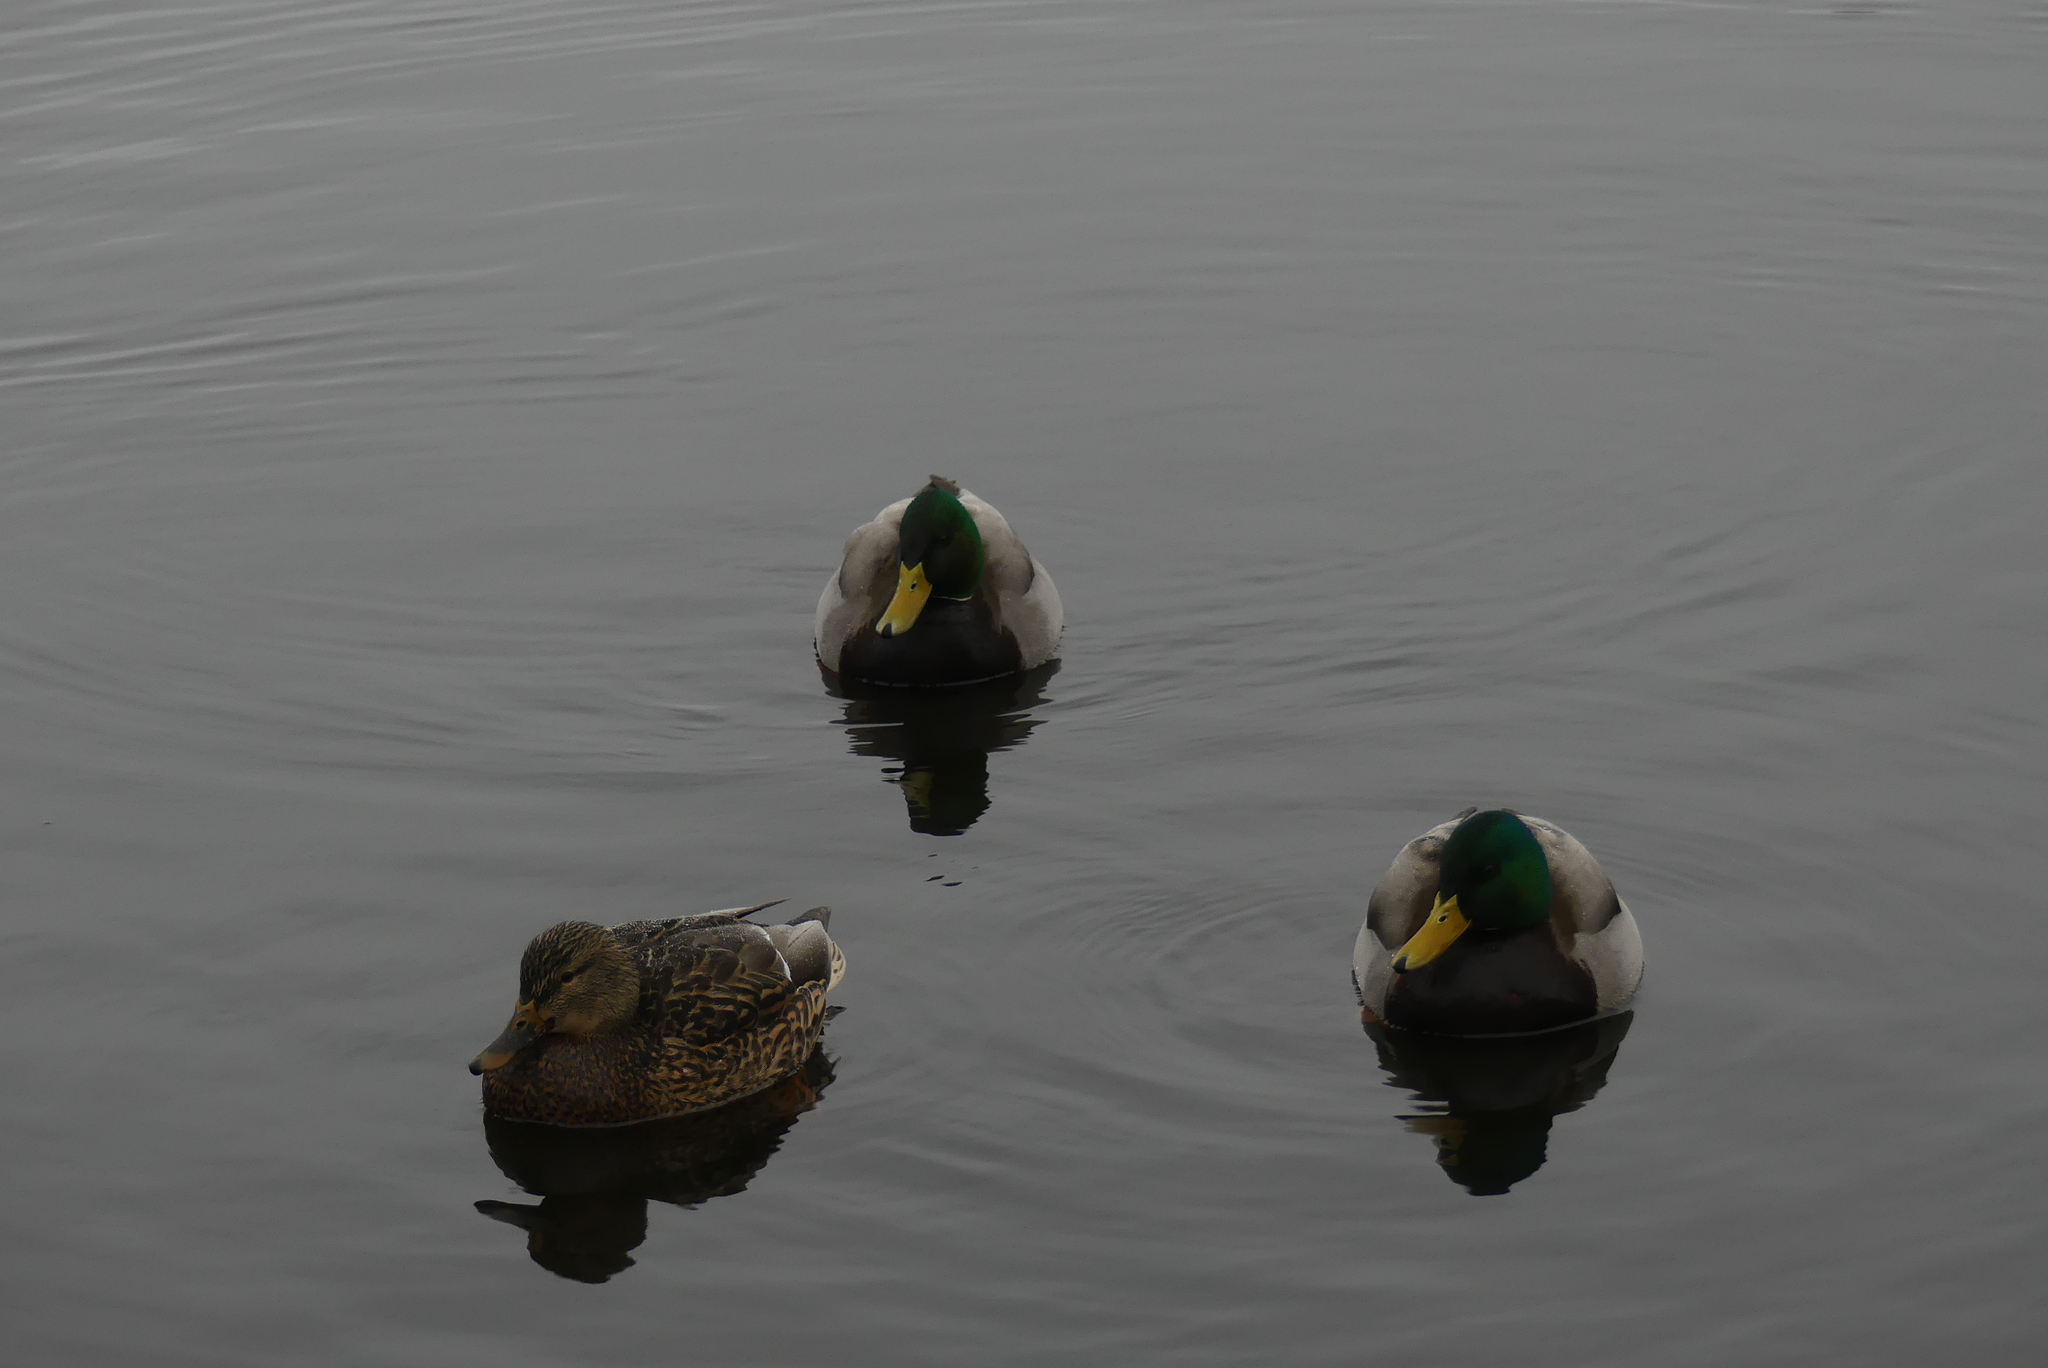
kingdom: Animalia
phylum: Chordata
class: Aves
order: Anseriformes
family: Anatidae
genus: Anas
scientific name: Anas platyrhynchos
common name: Mallard
